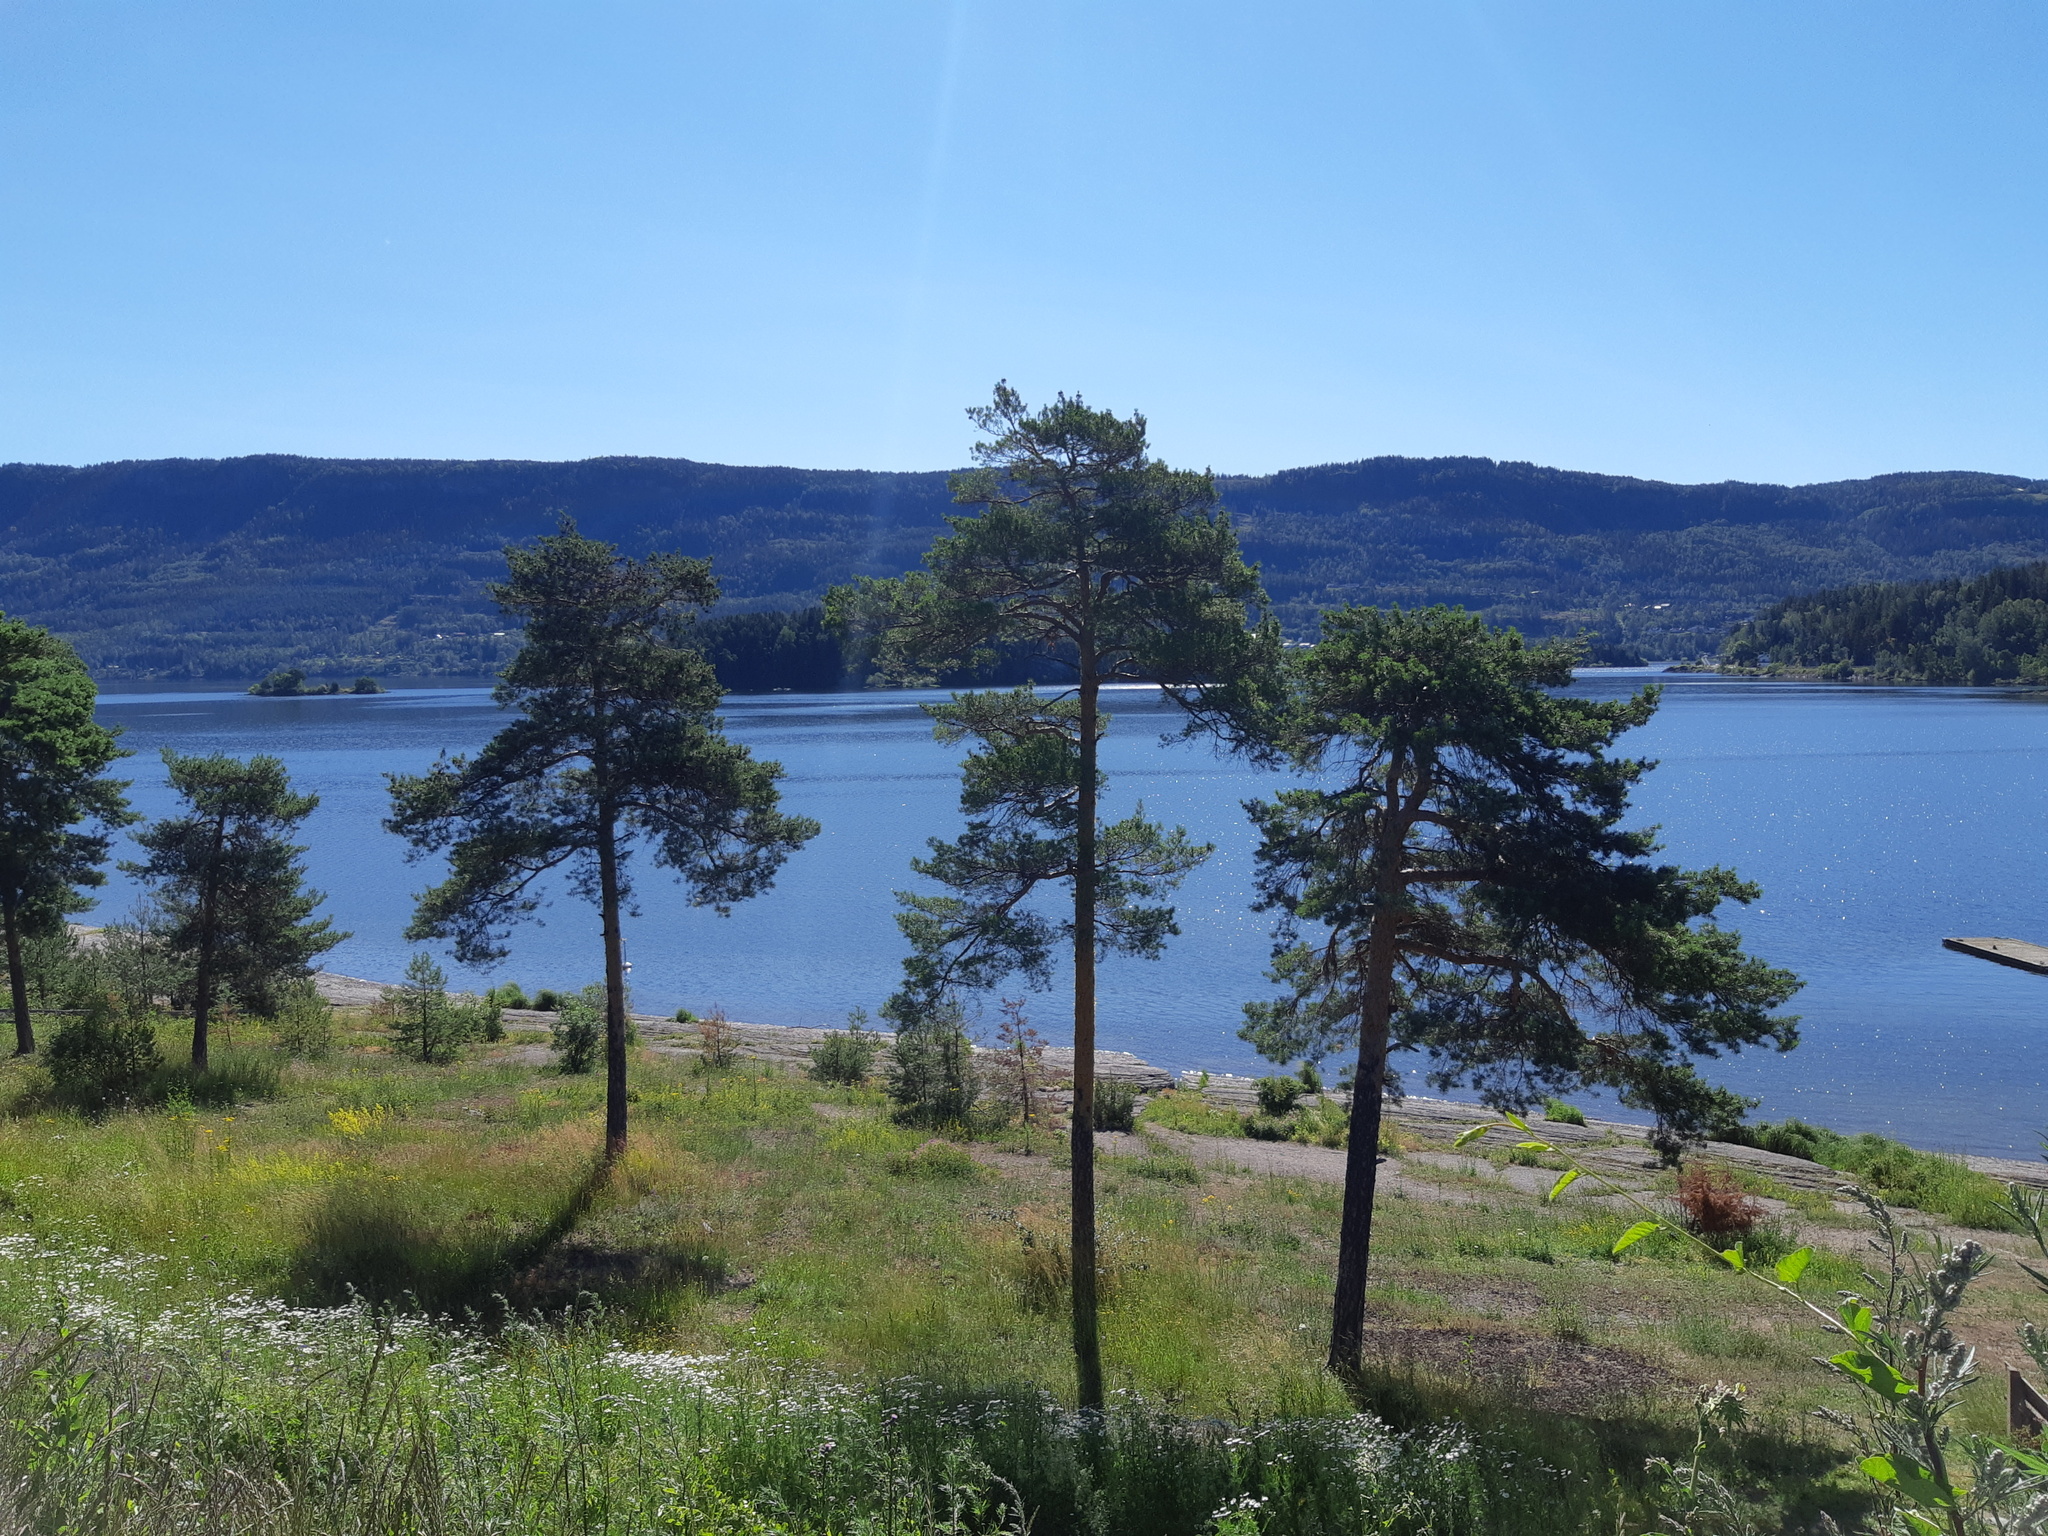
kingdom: Plantae
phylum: Tracheophyta
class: Pinopsida
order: Pinales
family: Pinaceae
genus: Pinus
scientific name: Pinus sylvestris
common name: Scots pine
